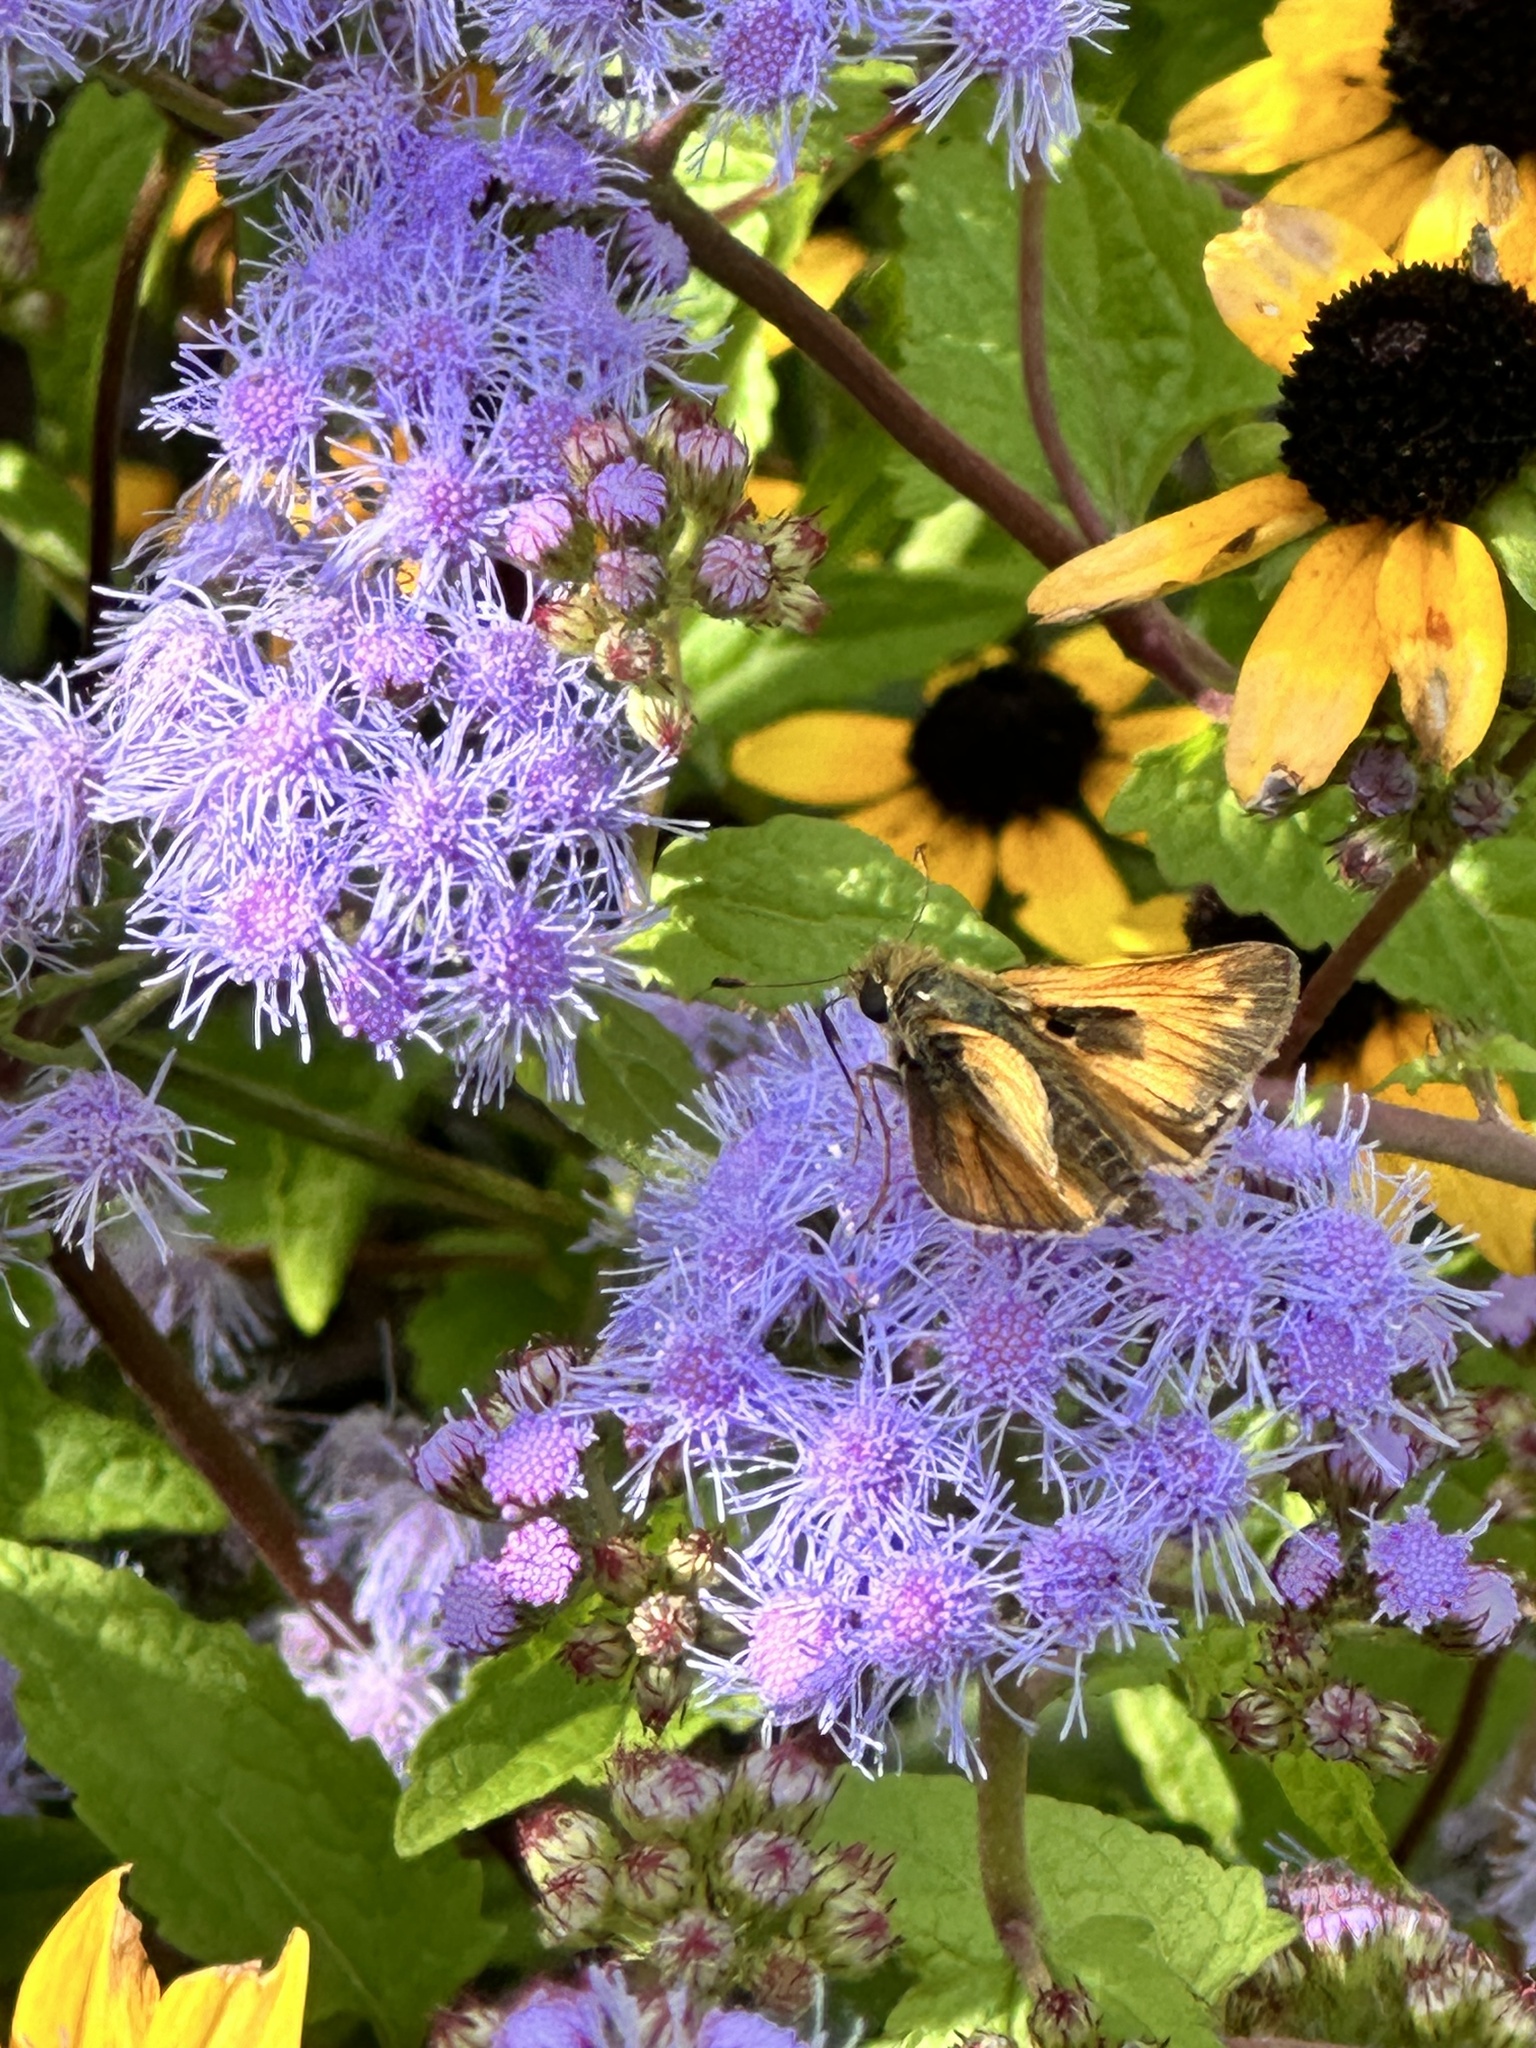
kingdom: Animalia
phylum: Arthropoda
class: Insecta
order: Lepidoptera
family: Hesperiidae
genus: Atalopedes
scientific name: Atalopedes
